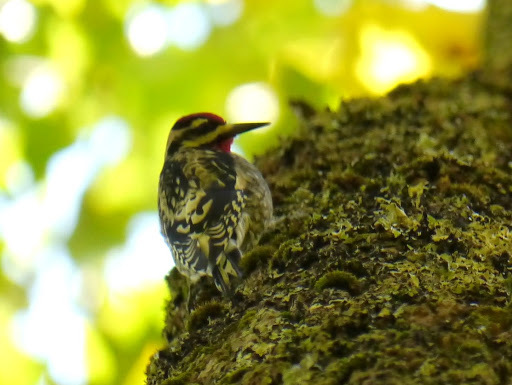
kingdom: Animalia
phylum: Chordata
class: Aves
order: Piciformes
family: Picidae
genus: Sphyrapicus
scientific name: Sphyrapicus varius
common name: Yellow-bellied sapsucker
